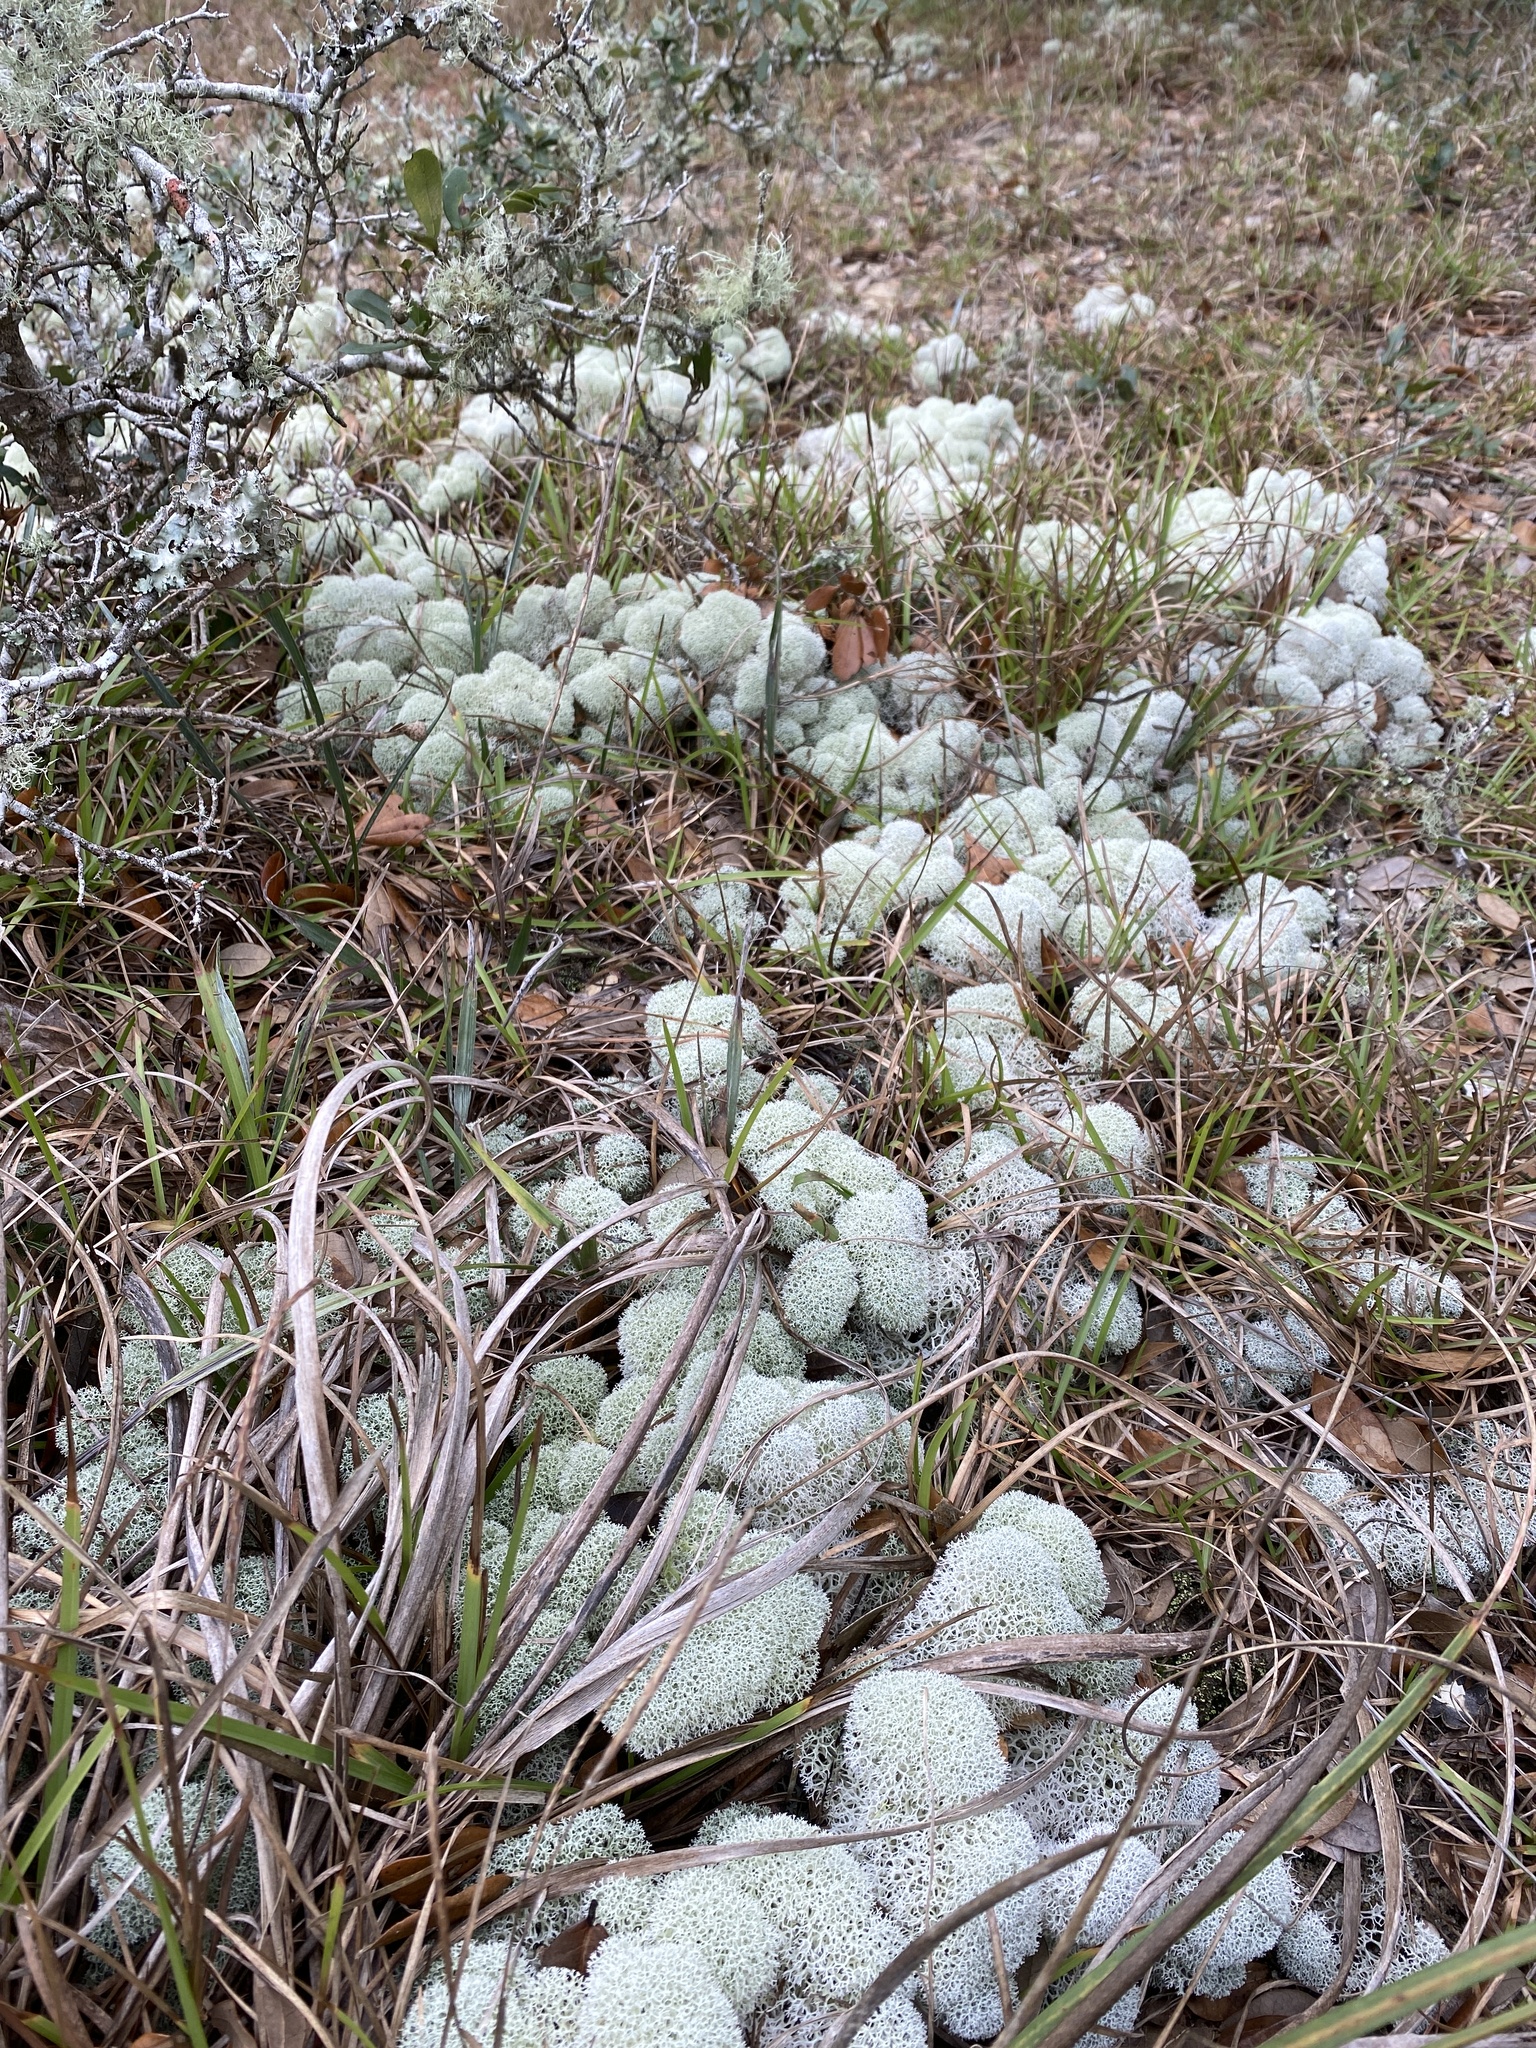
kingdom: Fungi
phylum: Ascomycota
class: Lecanoromycetes
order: Lecanorales
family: Cladoniaceae
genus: Cladonia
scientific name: Cladonia evansii
